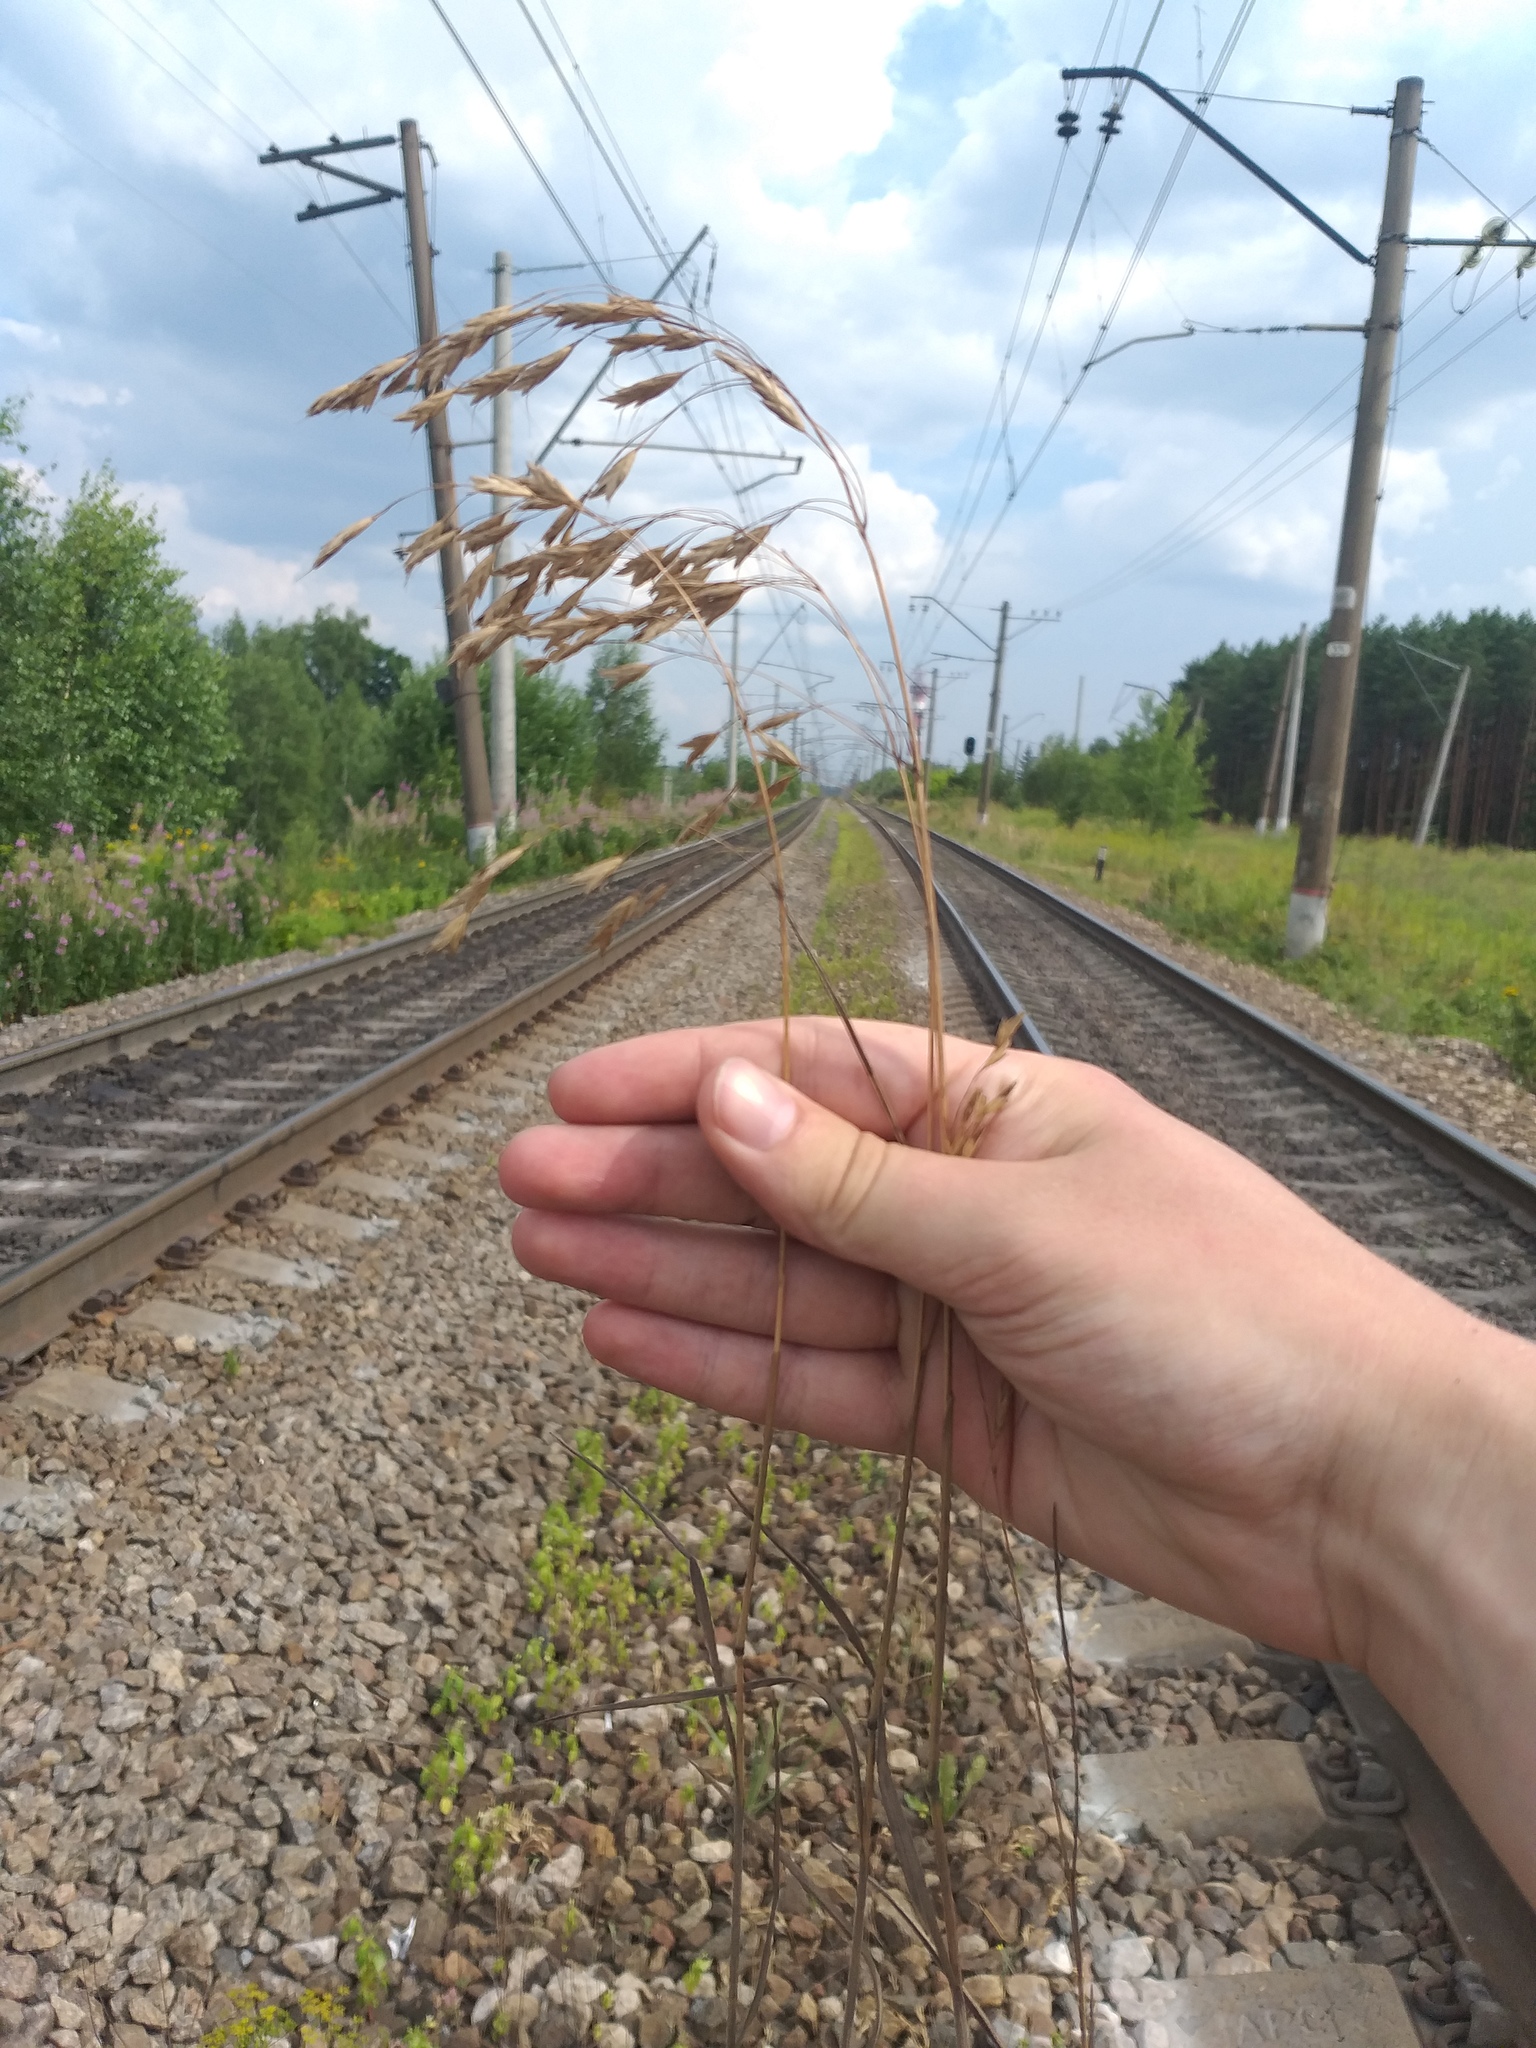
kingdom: Plantae
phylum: Tracheophyta
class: Liliopsida
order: Poales
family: Poaceae
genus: Bromus
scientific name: Bromus japonicus
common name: Japanese brome
